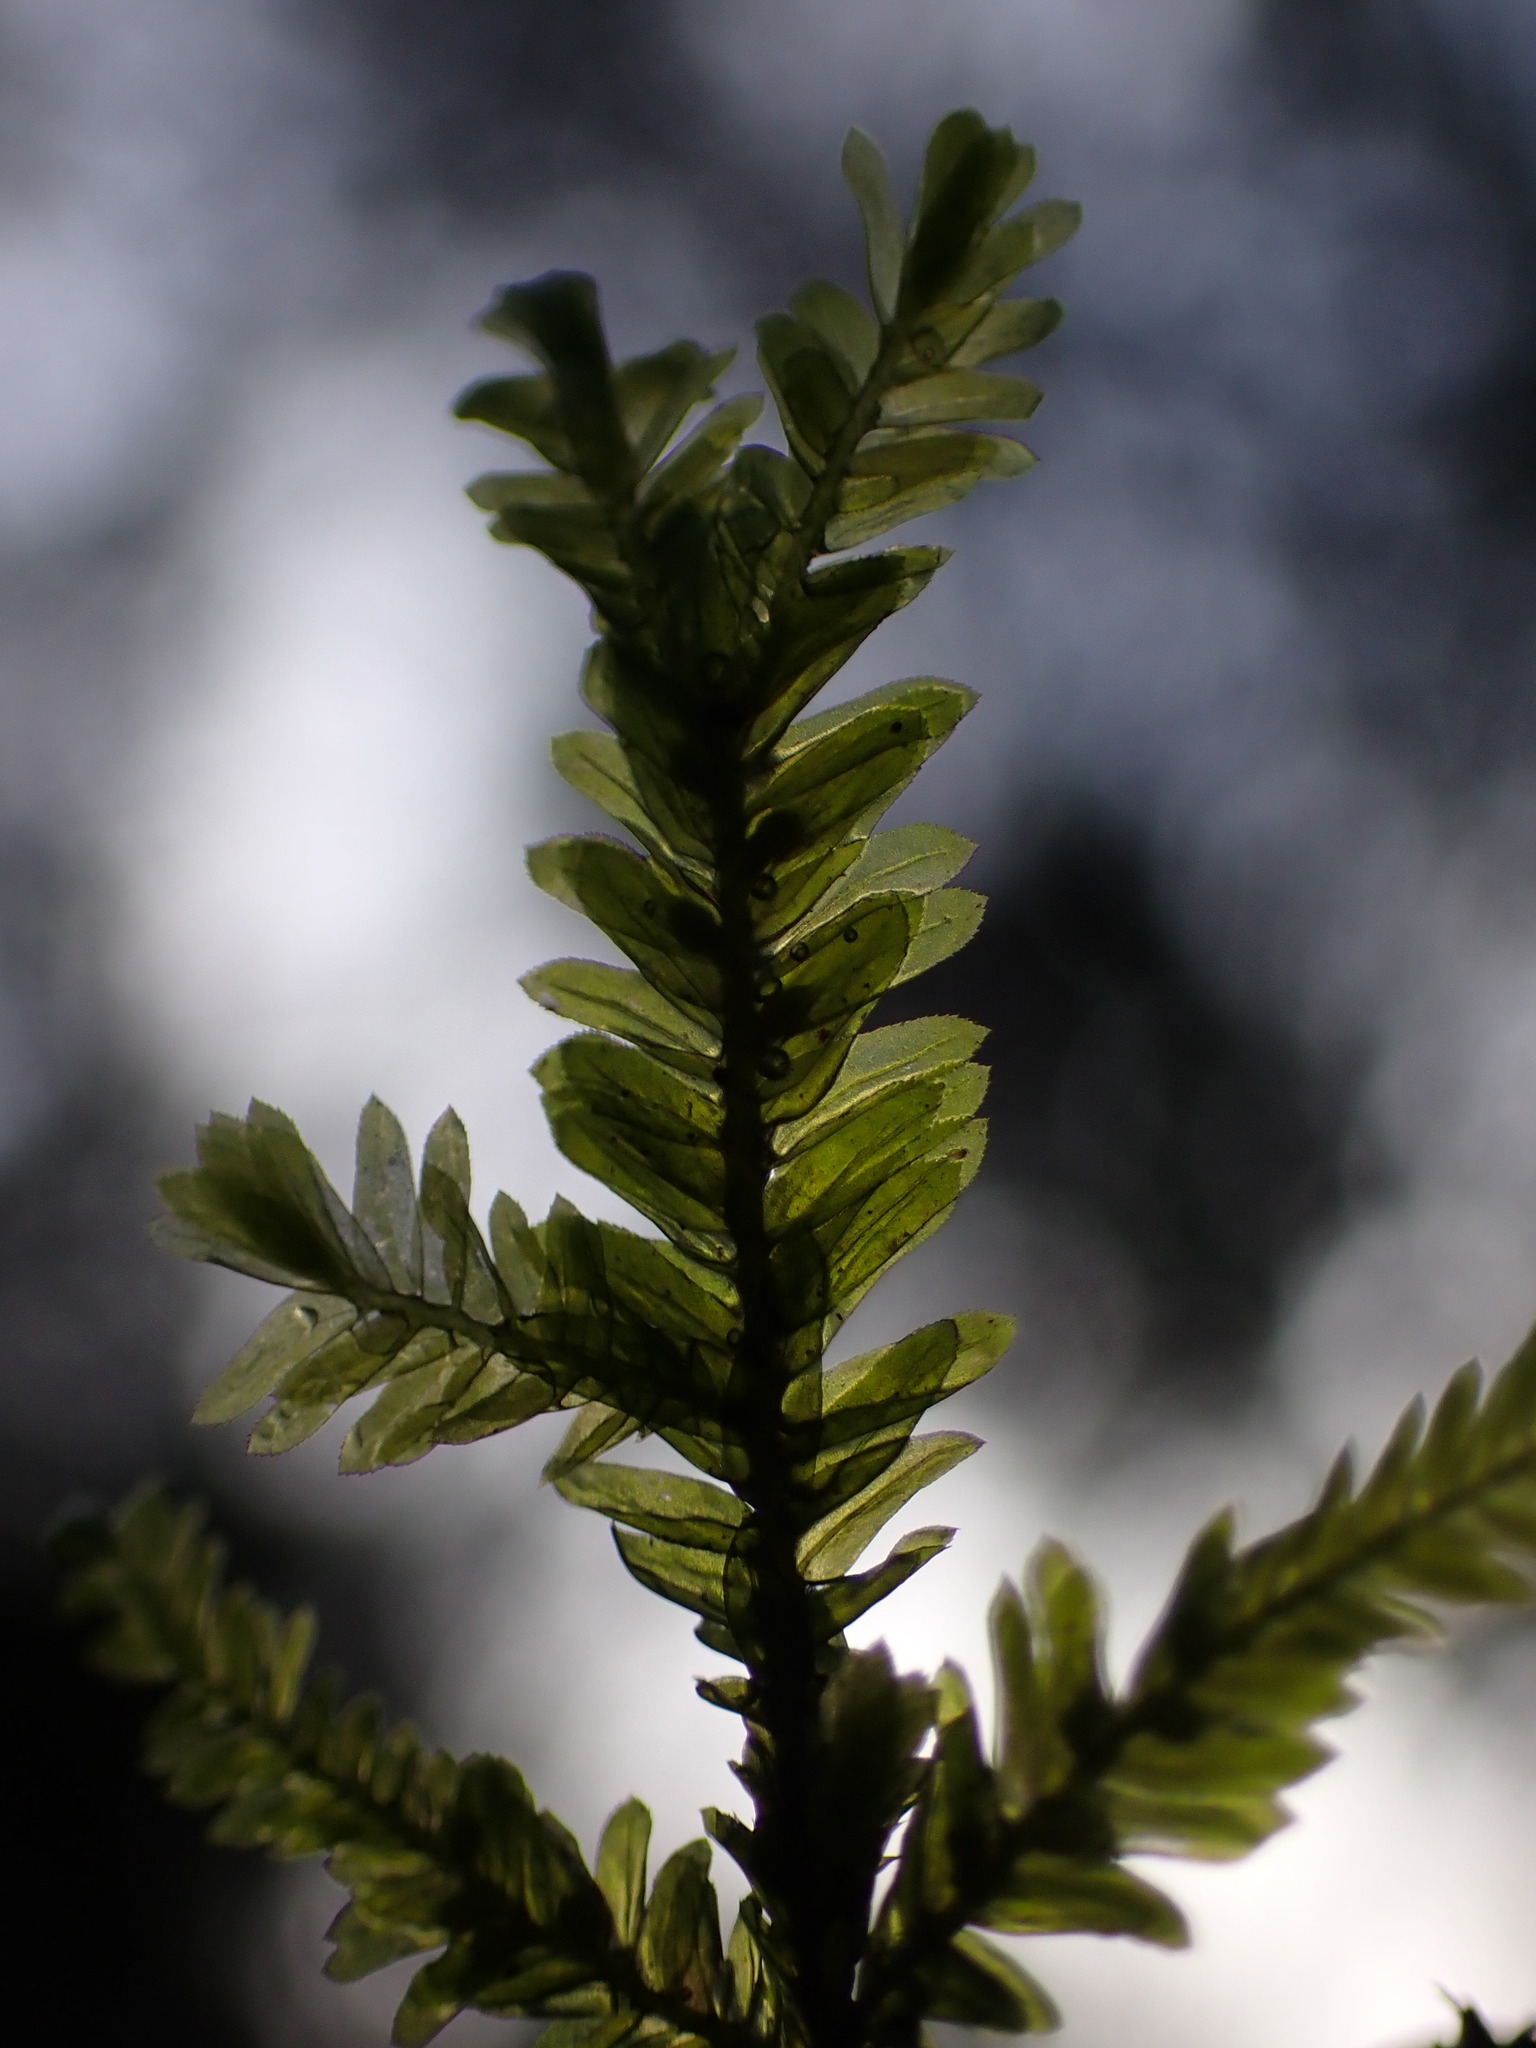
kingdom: Plantae
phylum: Bryophyta
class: Bryopsida
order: Hypnales
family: Neckeraceae
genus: Dannorrisia
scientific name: Dannorrisia bigelovii
